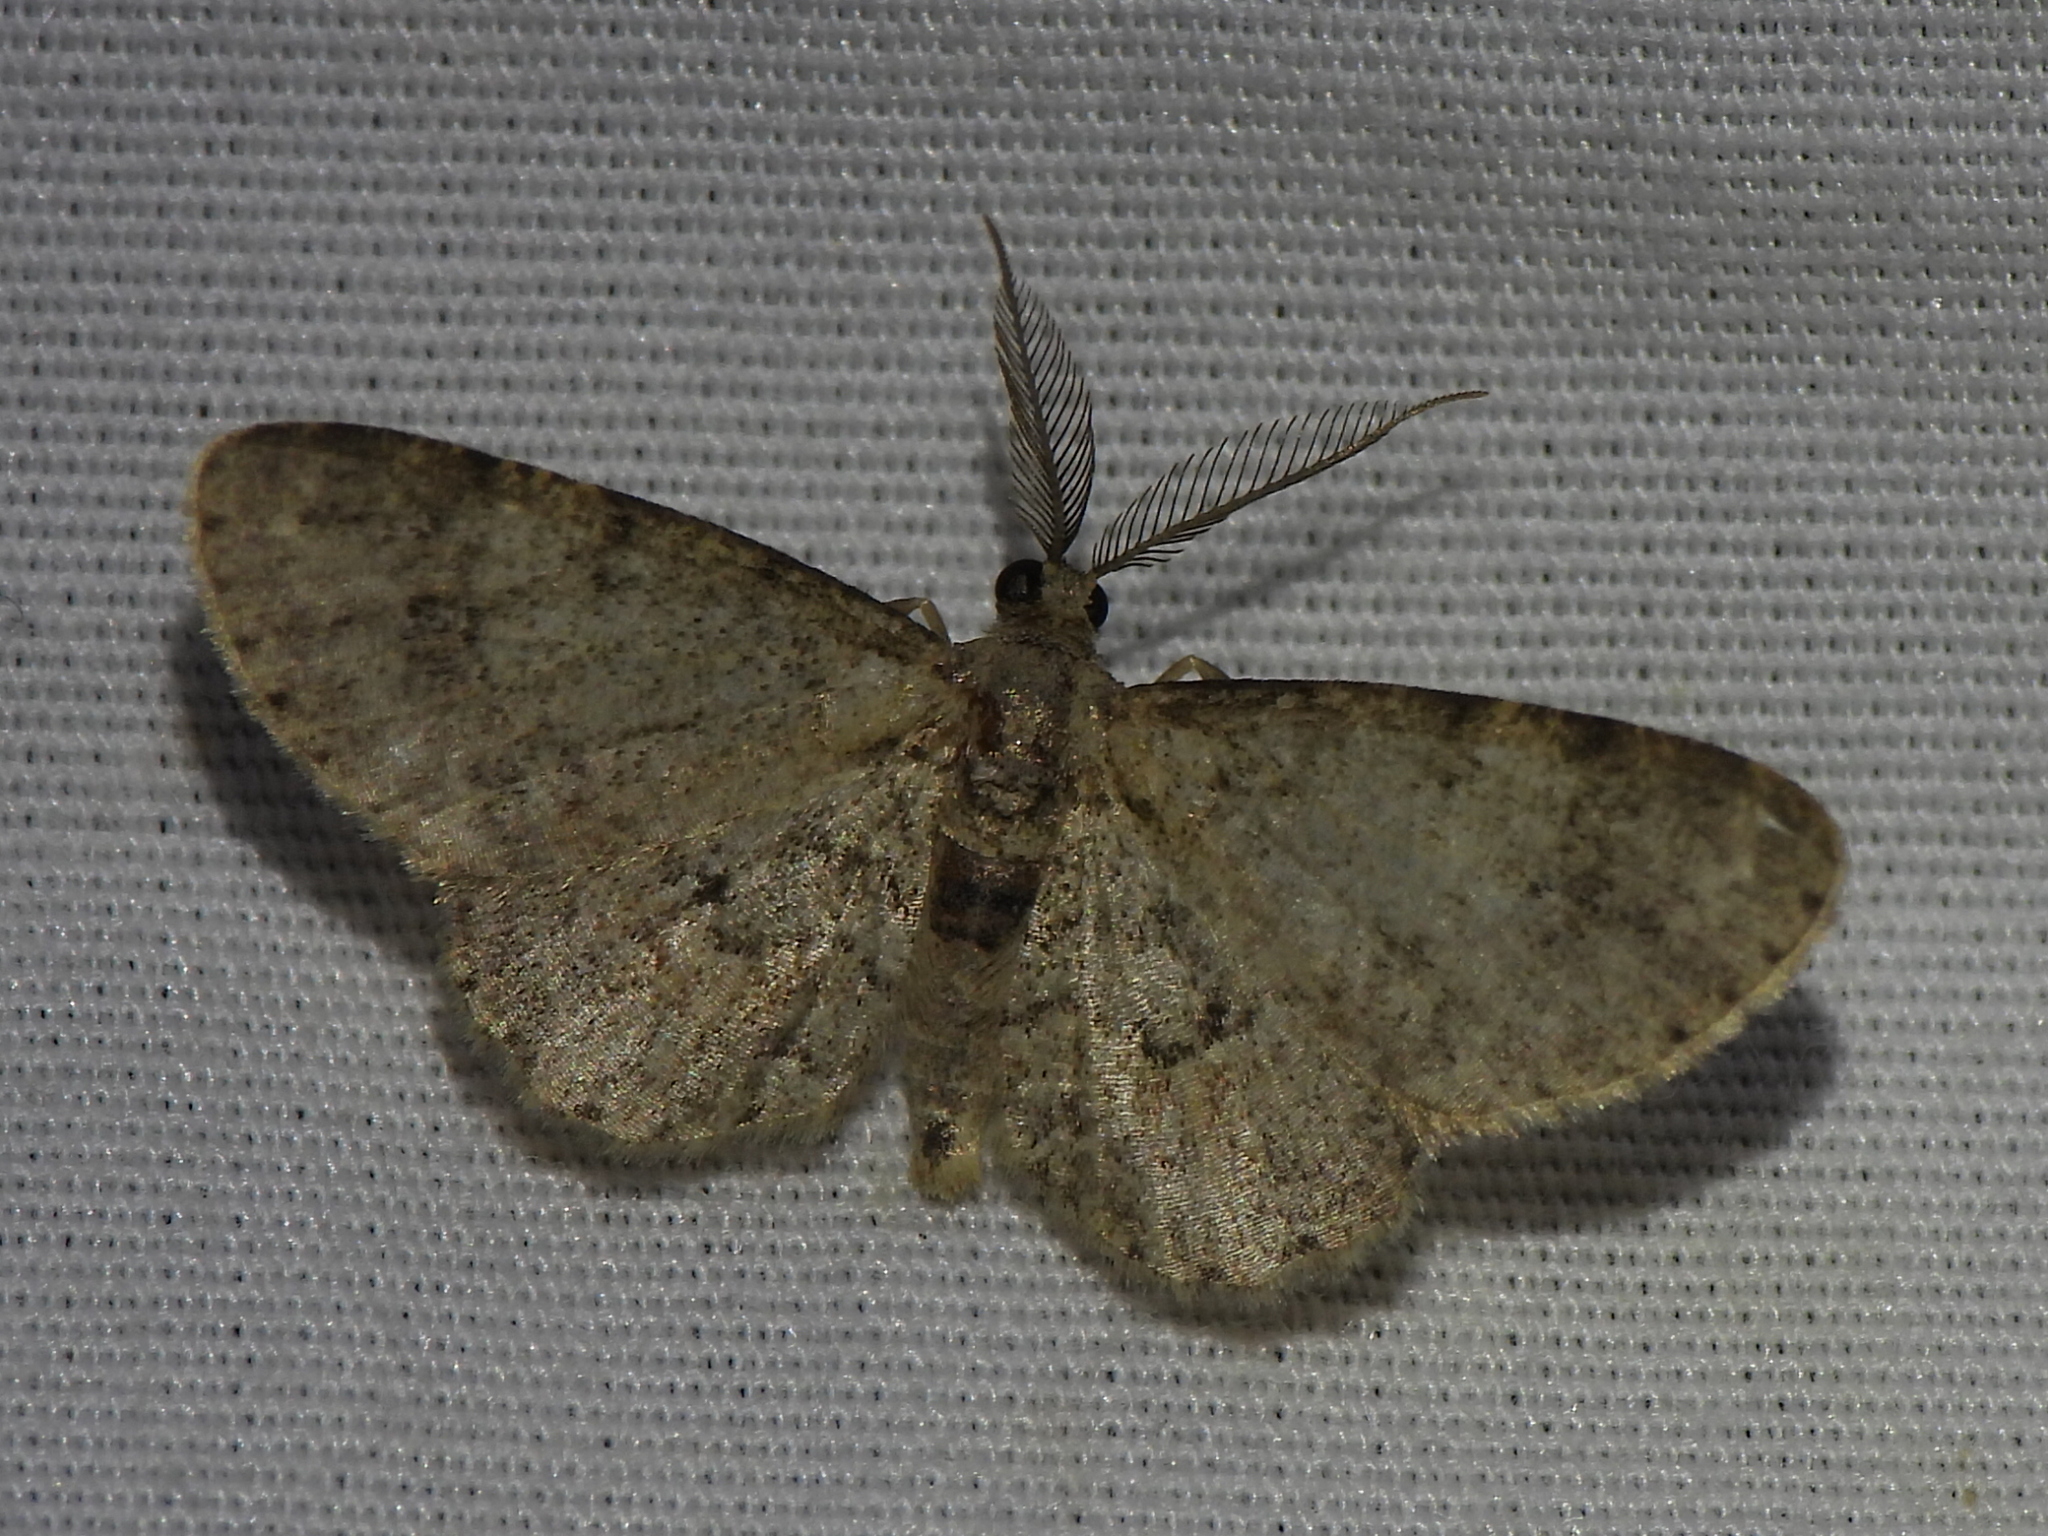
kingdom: Animalia
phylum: Arthropoda
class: Insecta
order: Lepidoptera
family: Geometridae
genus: Glenoides
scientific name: Glenoides texanaria
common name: Texas gray
